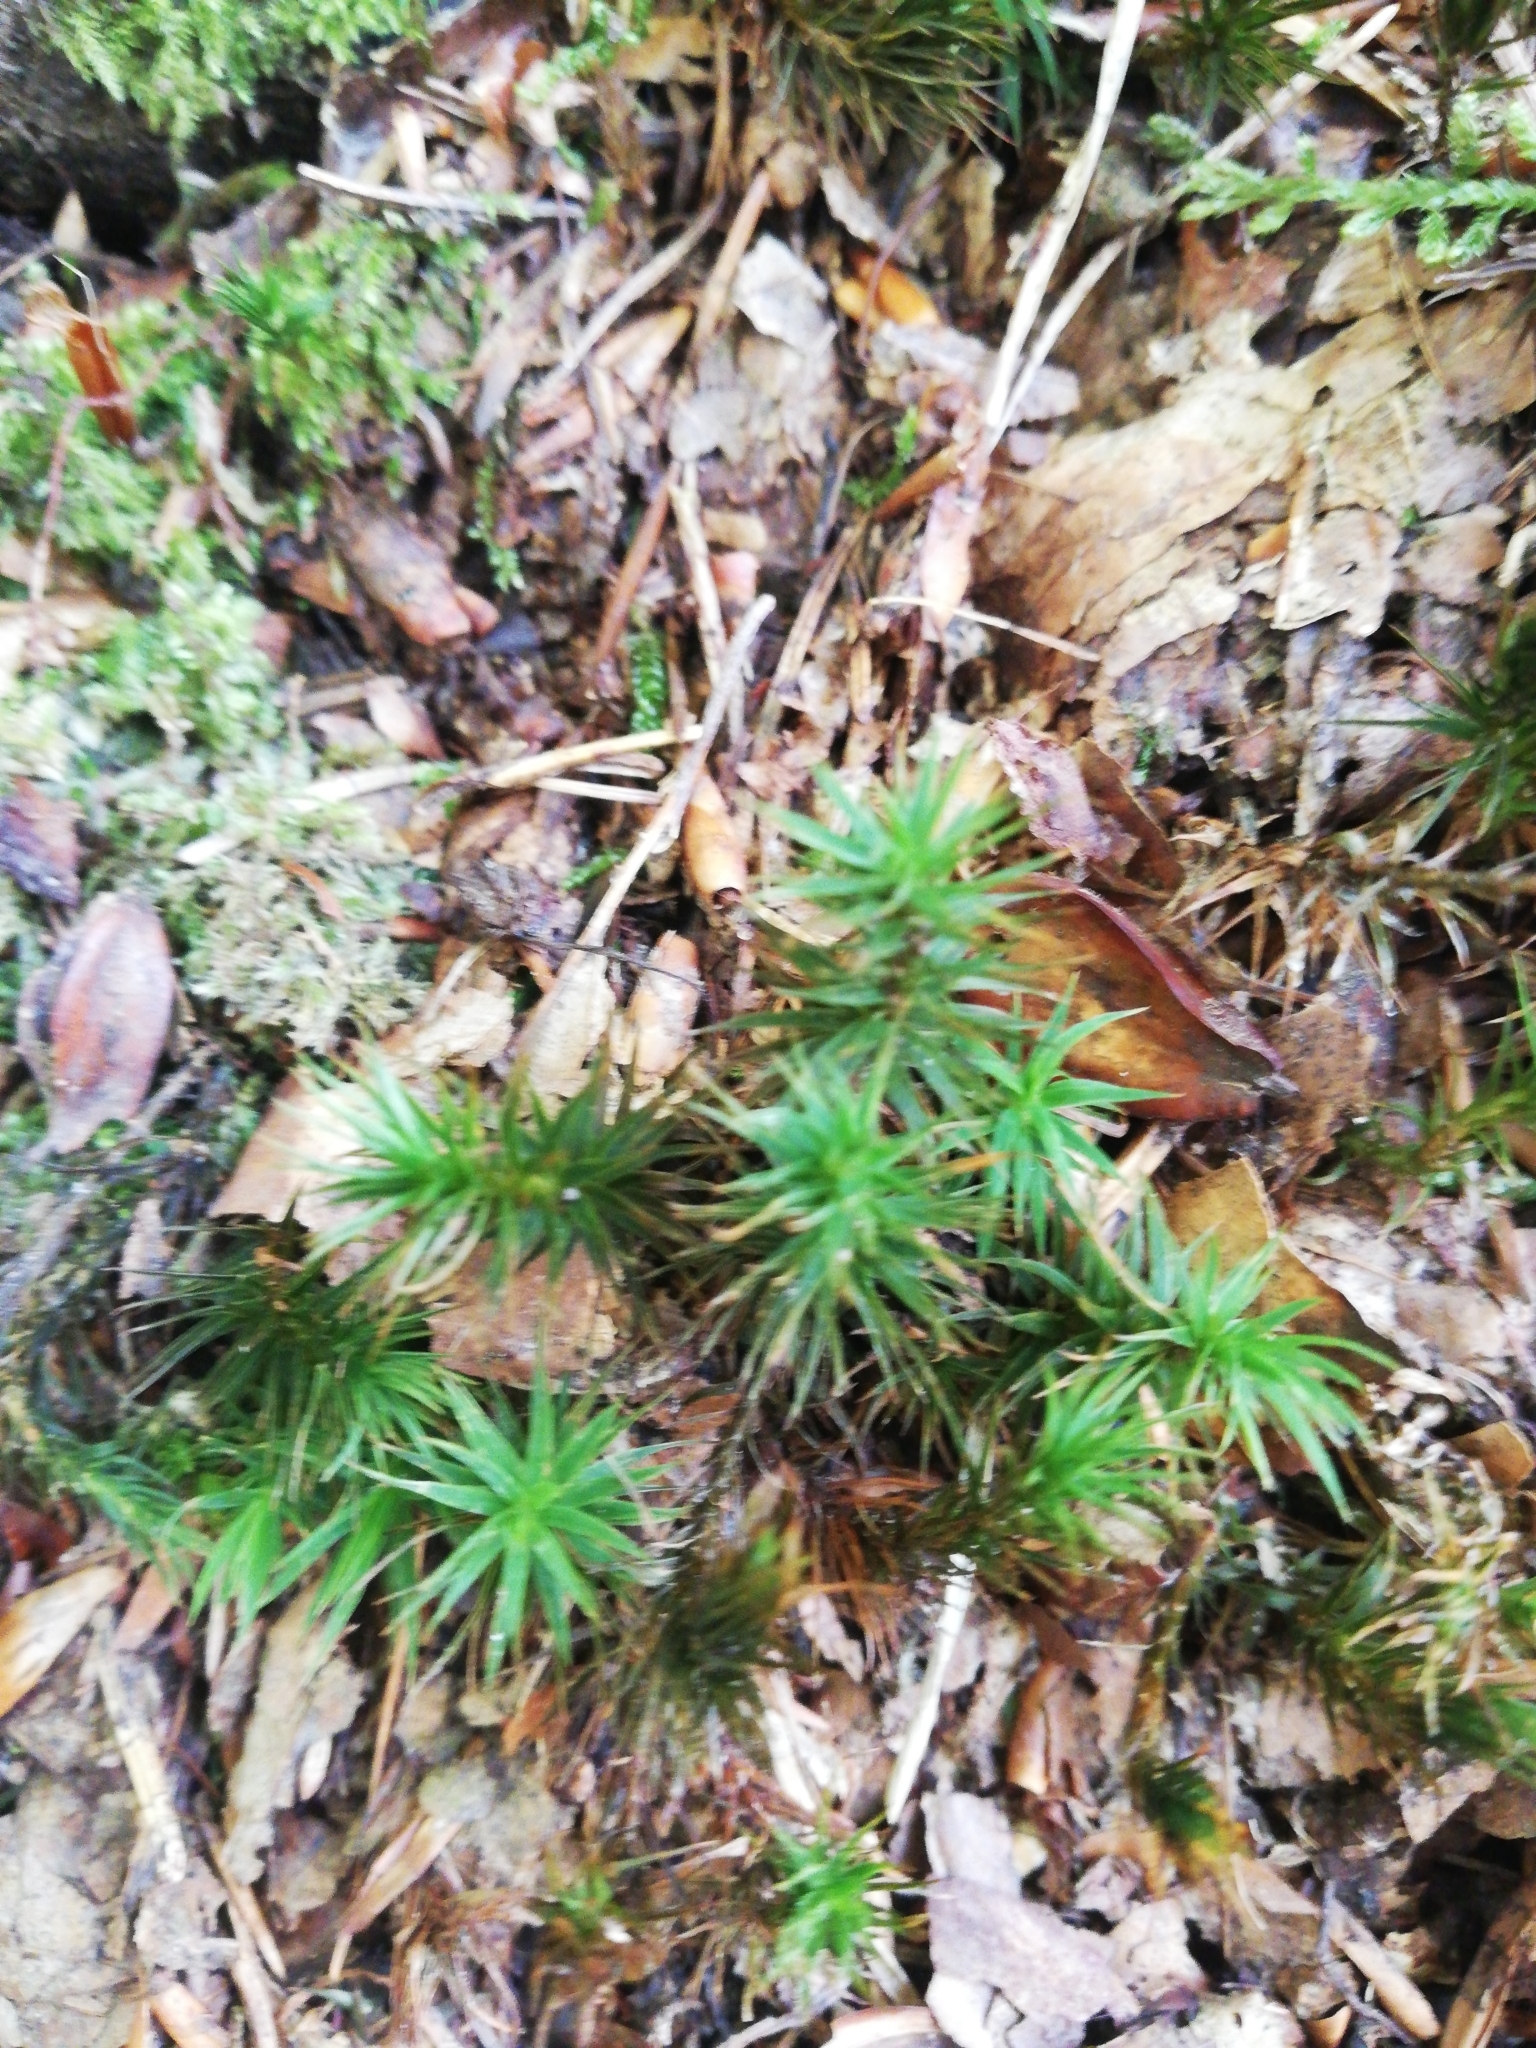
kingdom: Plantae
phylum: Bryophyta
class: Polytrichopsida
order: Polytrichales
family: Polytrichaceae
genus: Polytrichum
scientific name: Polytrichum commune
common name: Common haircap
